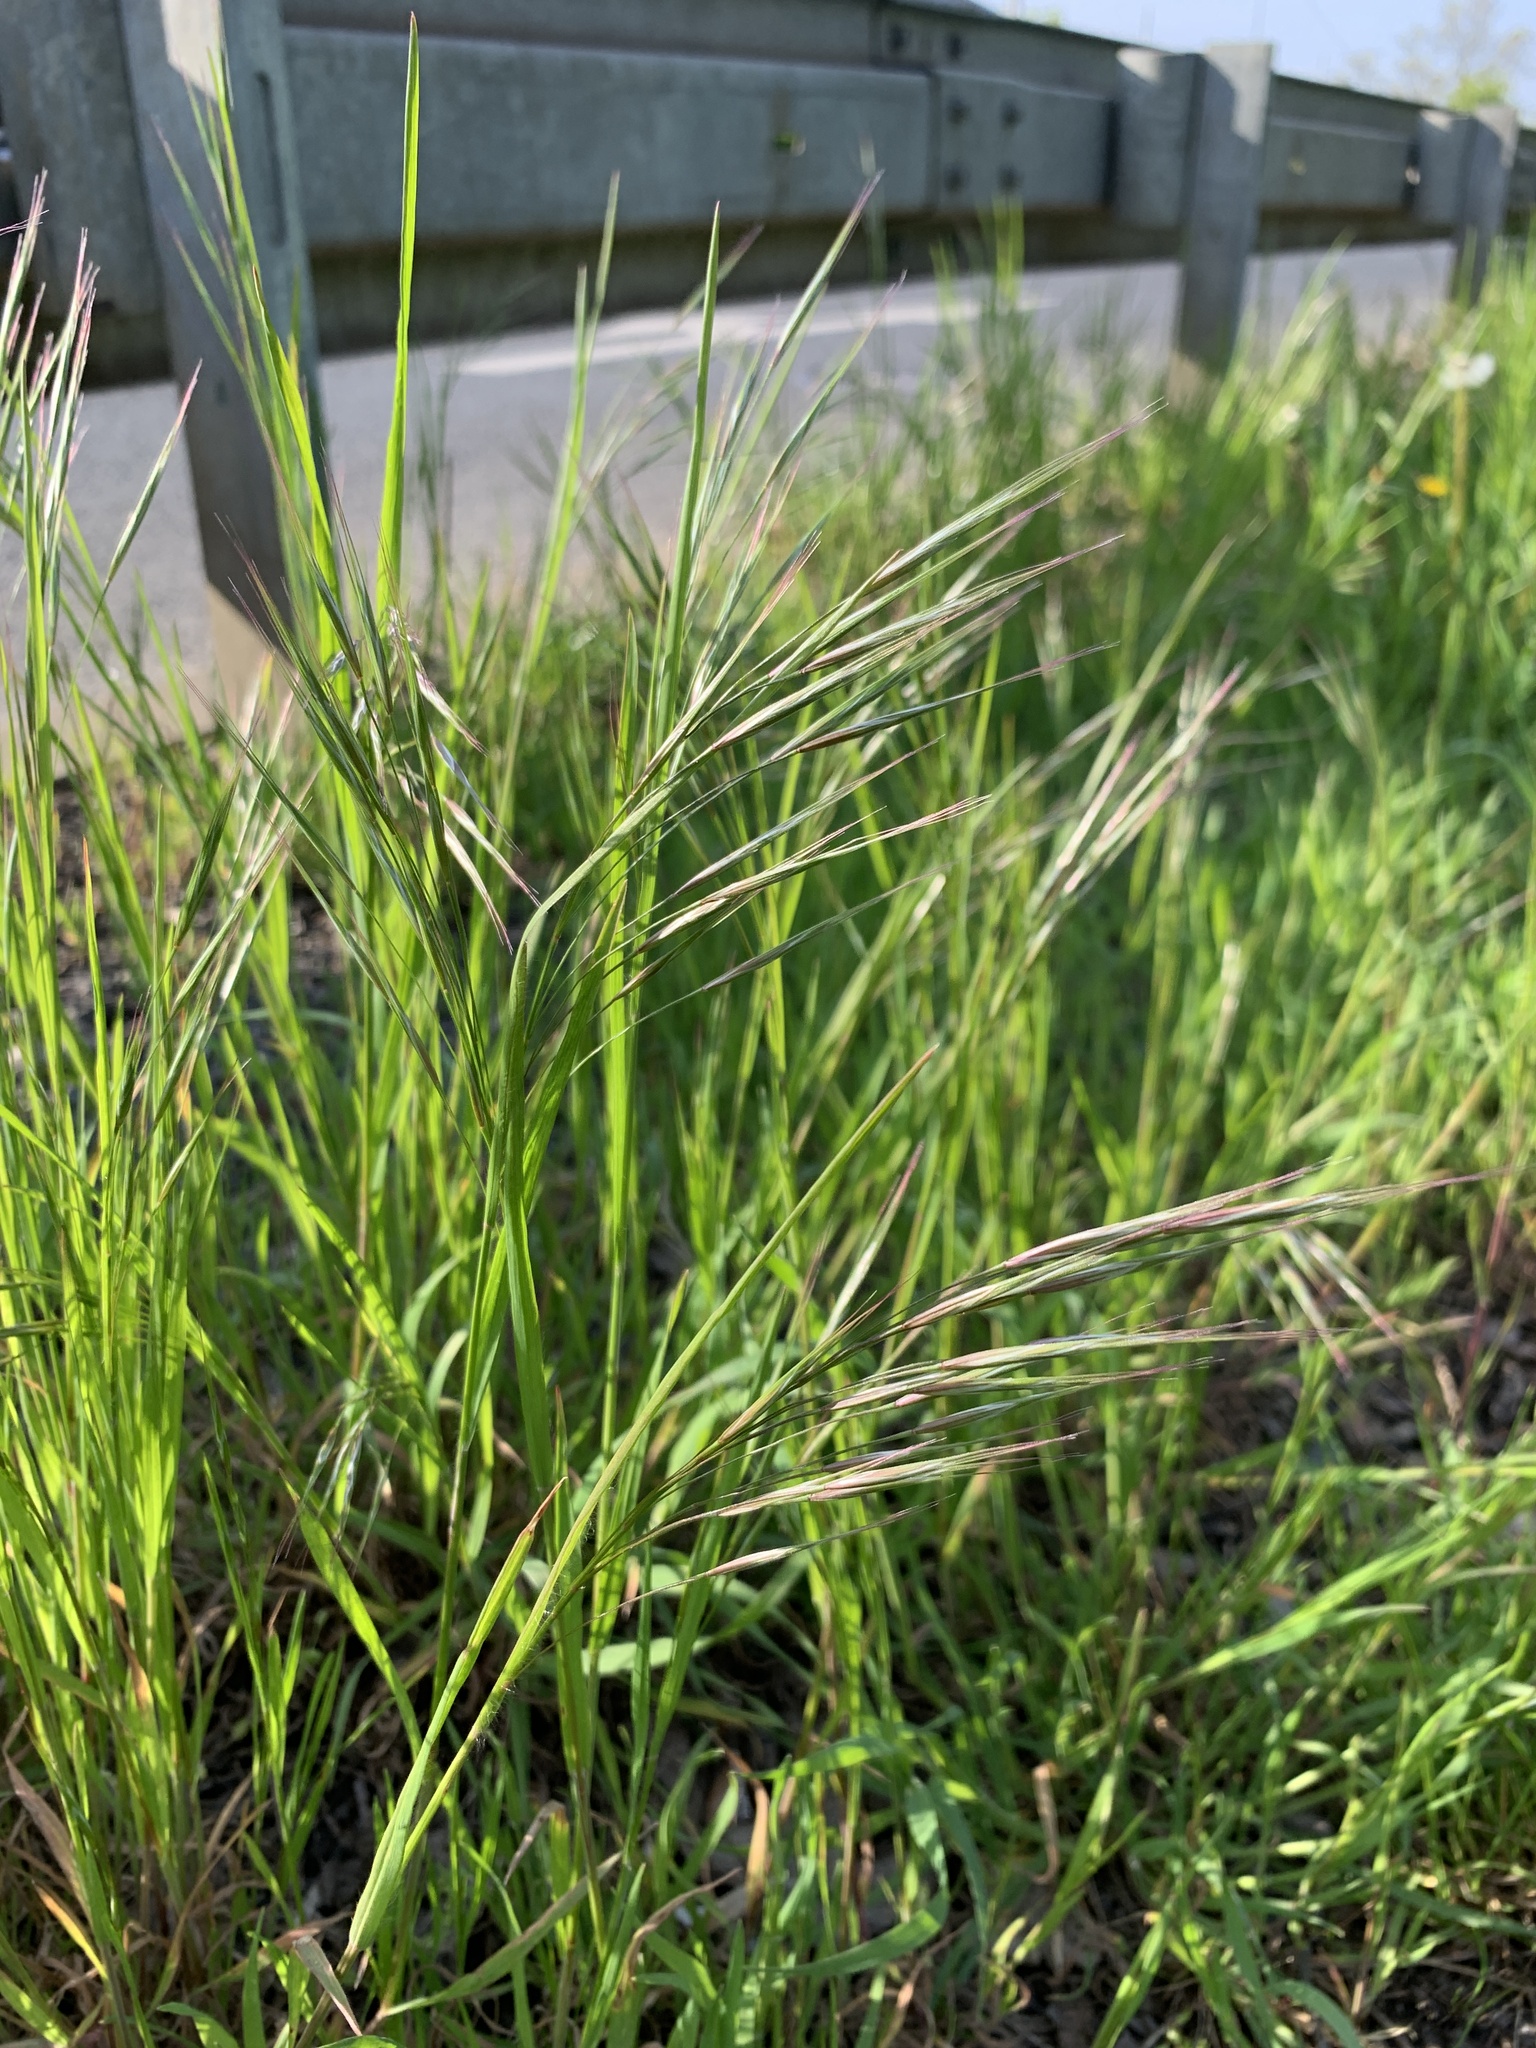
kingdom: Plantae
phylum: Tracheophyta
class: Liliopsida
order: Poales
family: Poaceae
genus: Bromus
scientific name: Bromus sterilis
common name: Poverty brome
